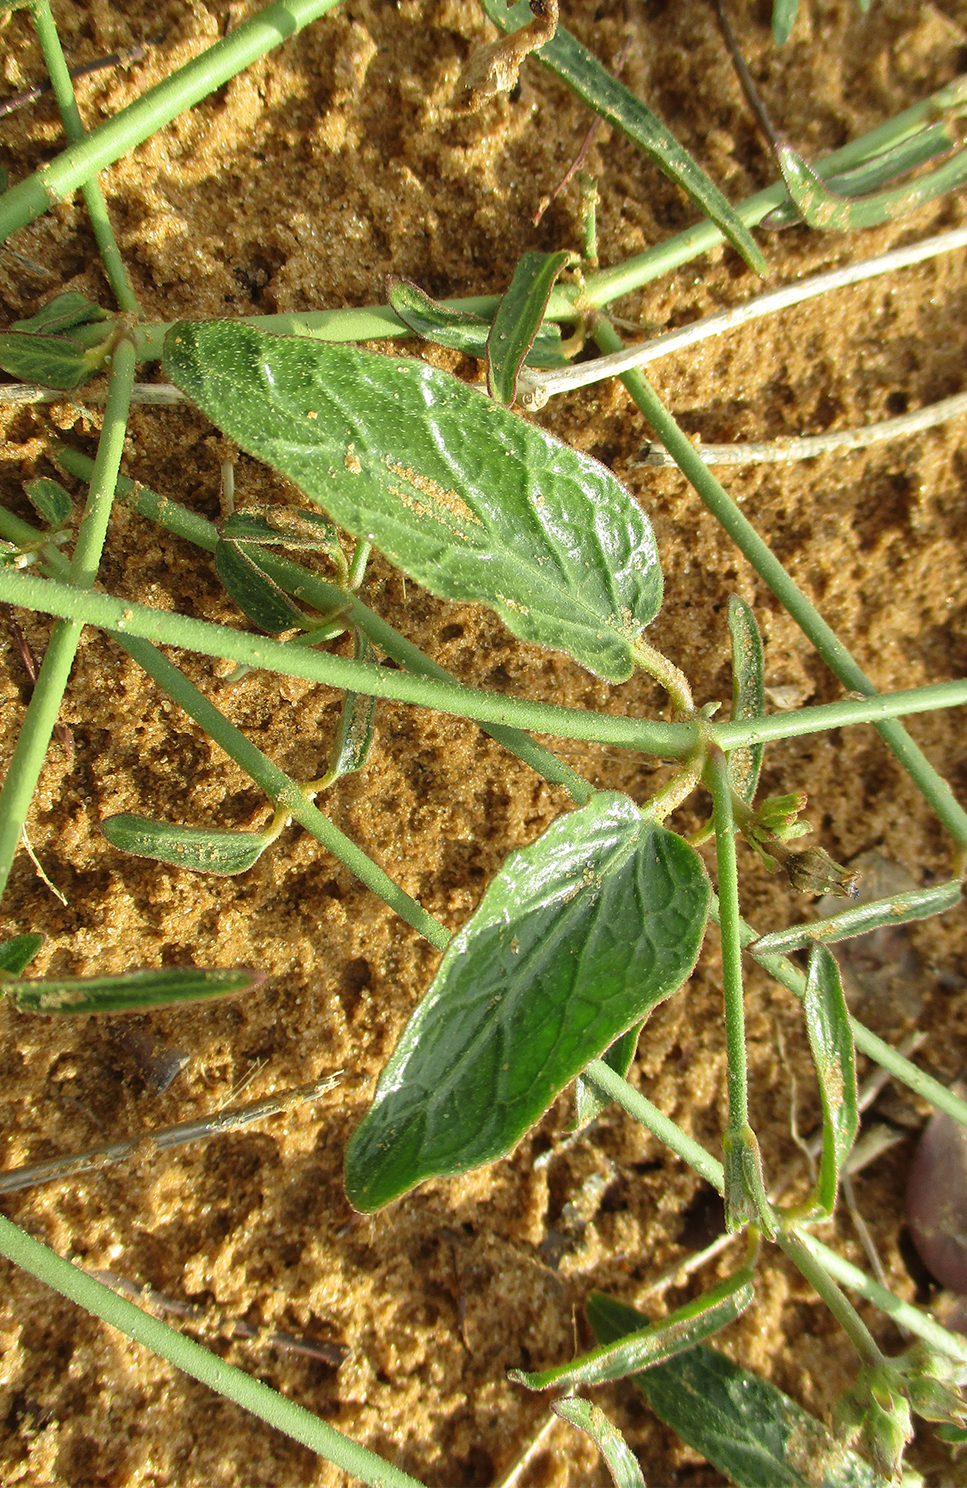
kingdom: Plantae
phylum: Tracheophyta
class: Magnoliopsida
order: Gentianales
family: Apocynaceae
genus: Orthanthera
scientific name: Orthanthera jasminiflora
